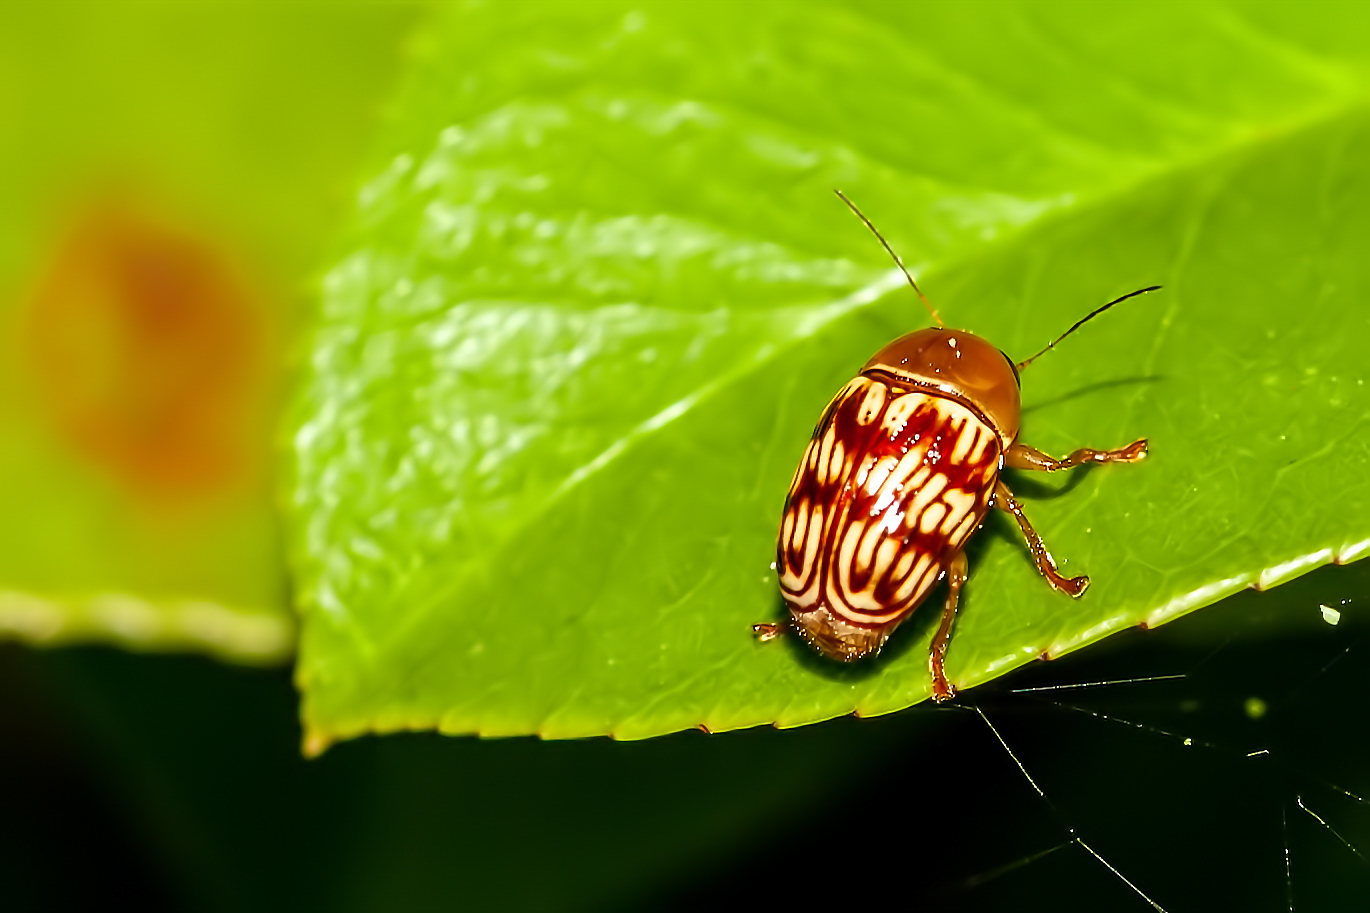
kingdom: Animalia
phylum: Arthropoda
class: Insecta
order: Coleoptera
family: Chrysomelidae
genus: Cryptocephalus
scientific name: Cryptocephalus fulguratus
